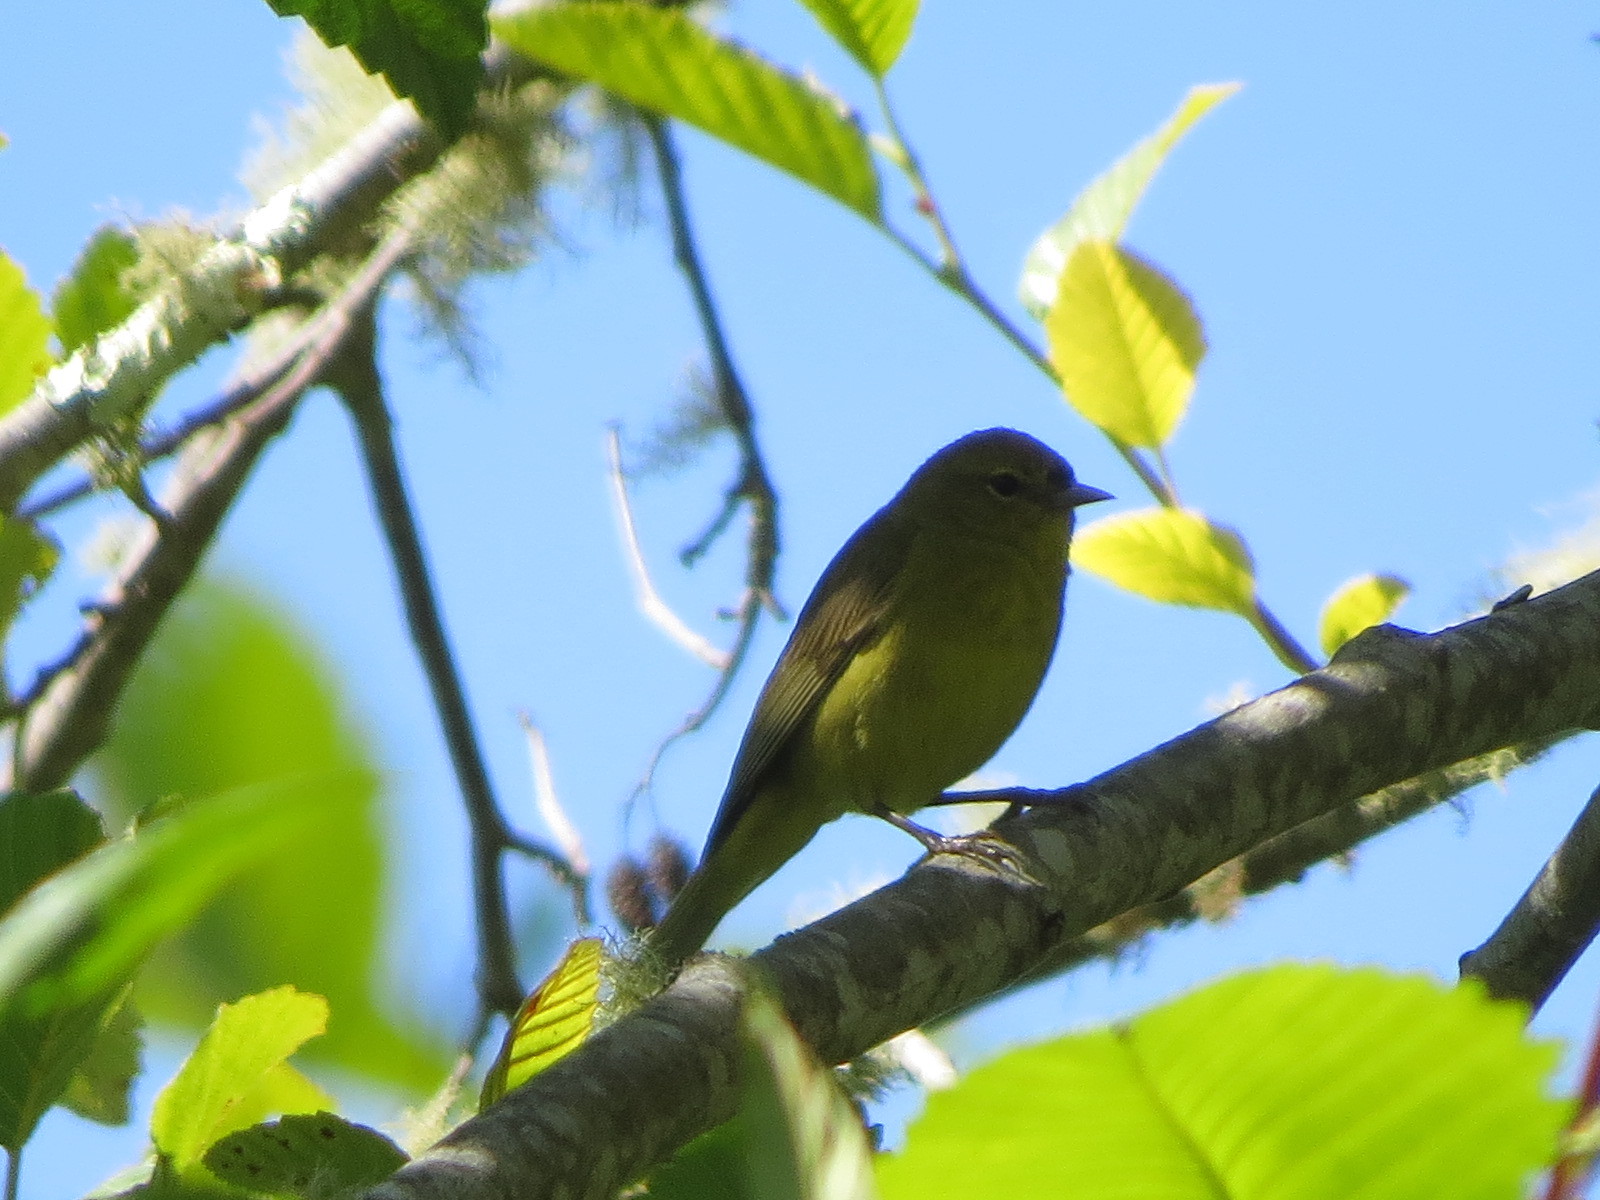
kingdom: Animalia
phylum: Chordata
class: Aves
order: Passeriformes
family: Parulidae
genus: Leiothlypis
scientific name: Leiothlypis celata
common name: Orange-crowned warbler
